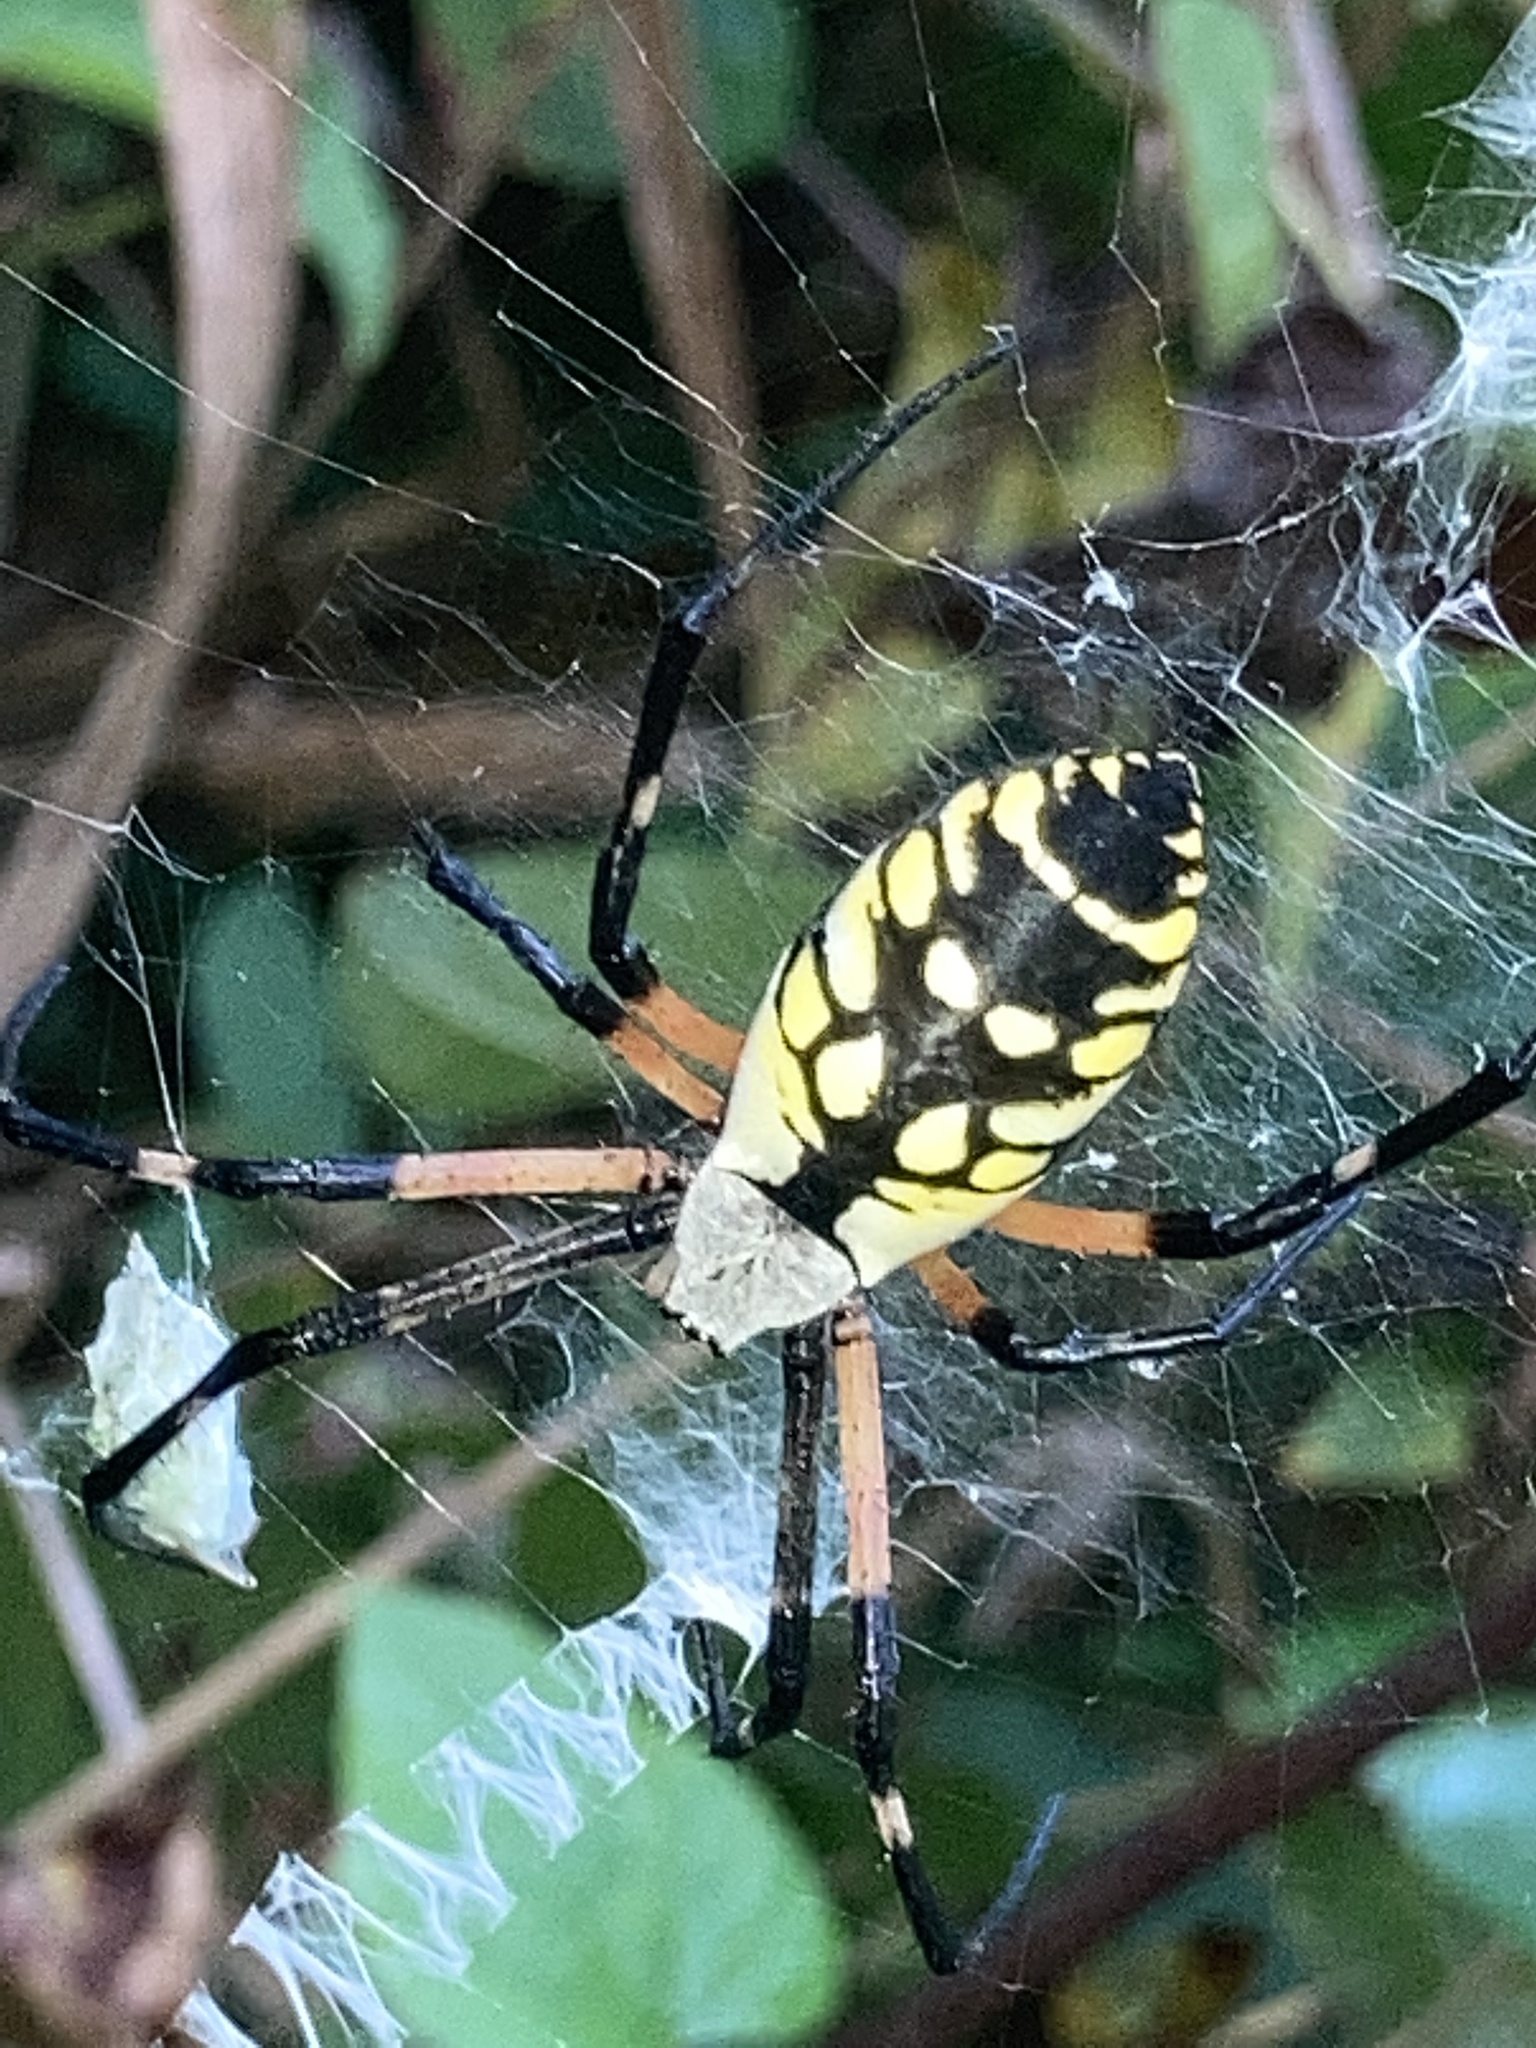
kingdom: Animalia
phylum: Arthropoda
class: Arachnida
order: Araneae
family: Araneidae
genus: Argiope
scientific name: Argiope aurantia
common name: Orb weavers
